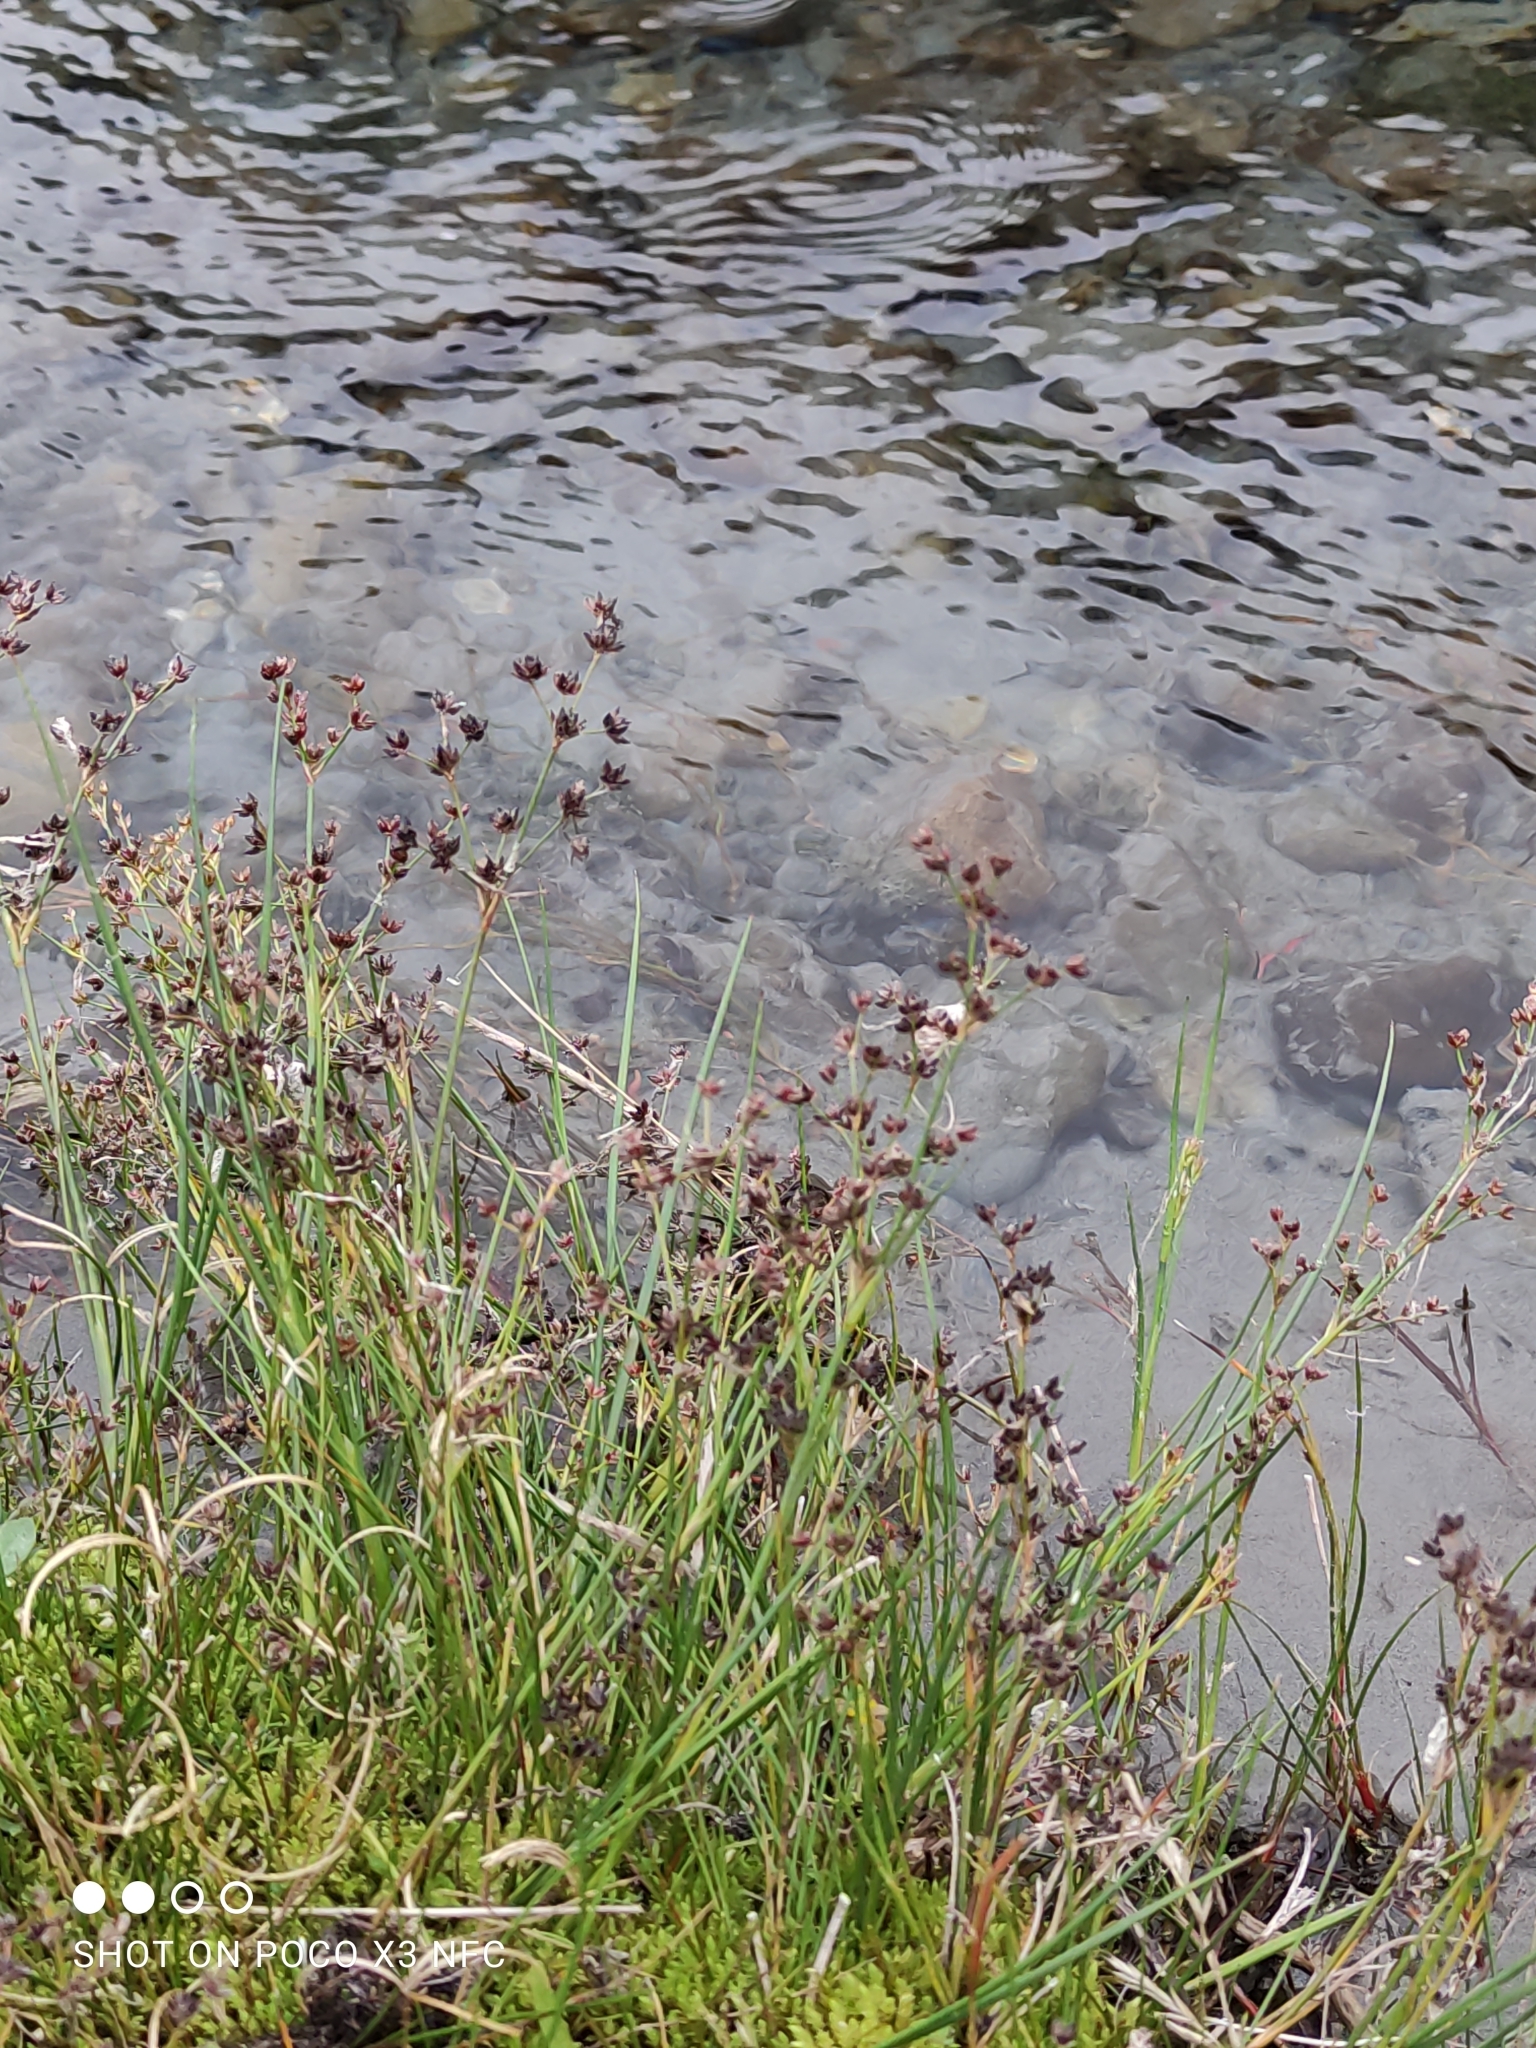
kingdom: Plantae
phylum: Tracheophyta
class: Liliopsida
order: Poales
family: Juncaceae
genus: Juncus
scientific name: Juncus articulatus
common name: Jointed rush
